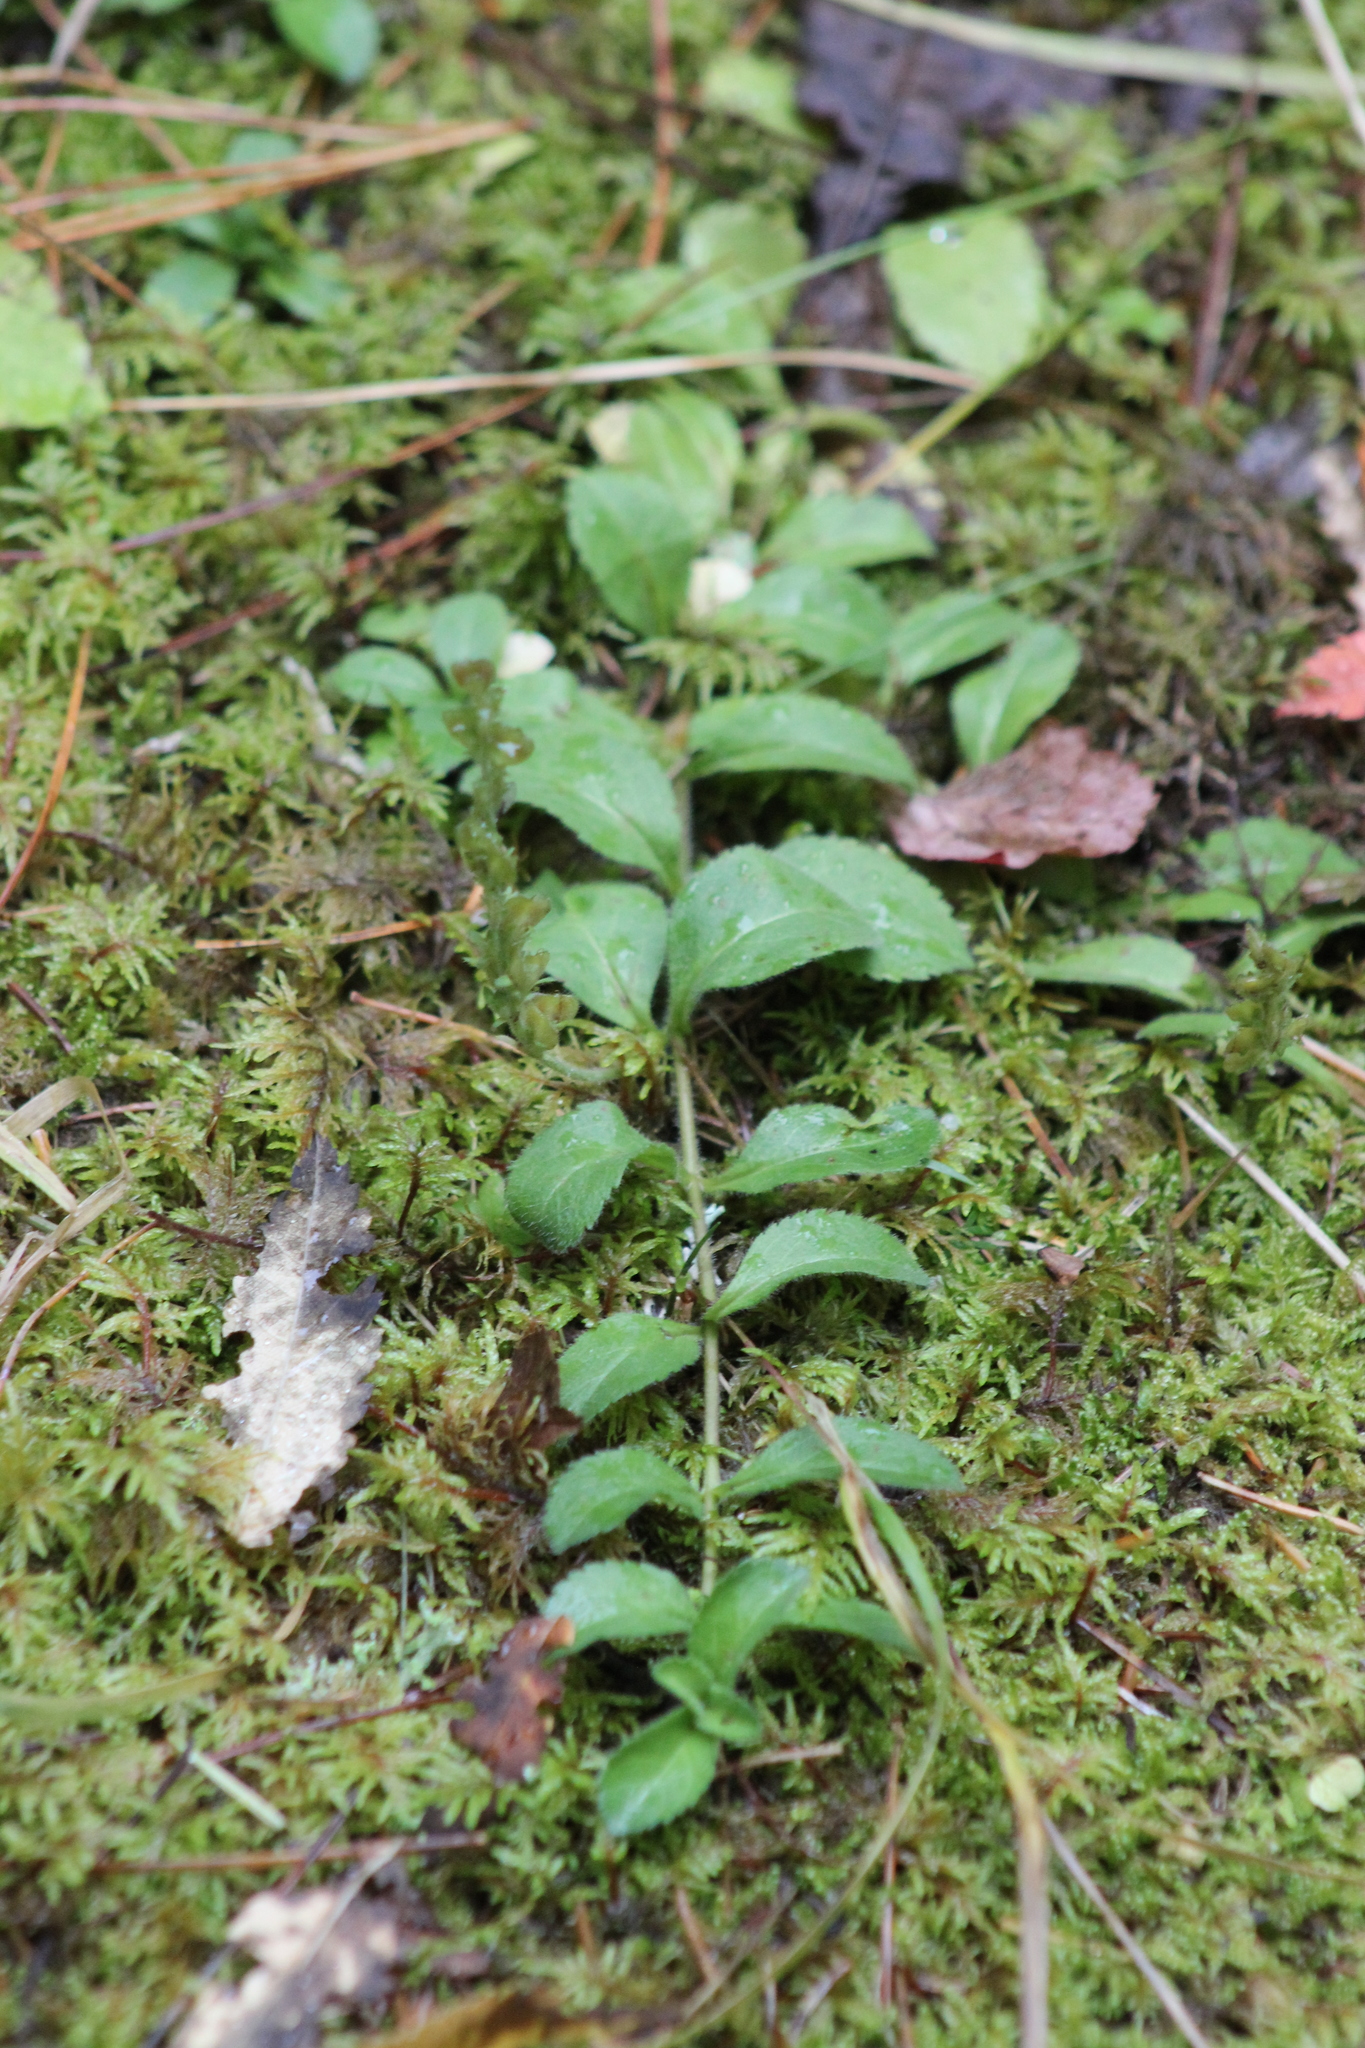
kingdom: Plantae
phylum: Tracheophyta
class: Magnoliopsida
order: Lamiales
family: Plantaginaceae
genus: Veronica
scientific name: Veronica officinalis
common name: Common speedwell
